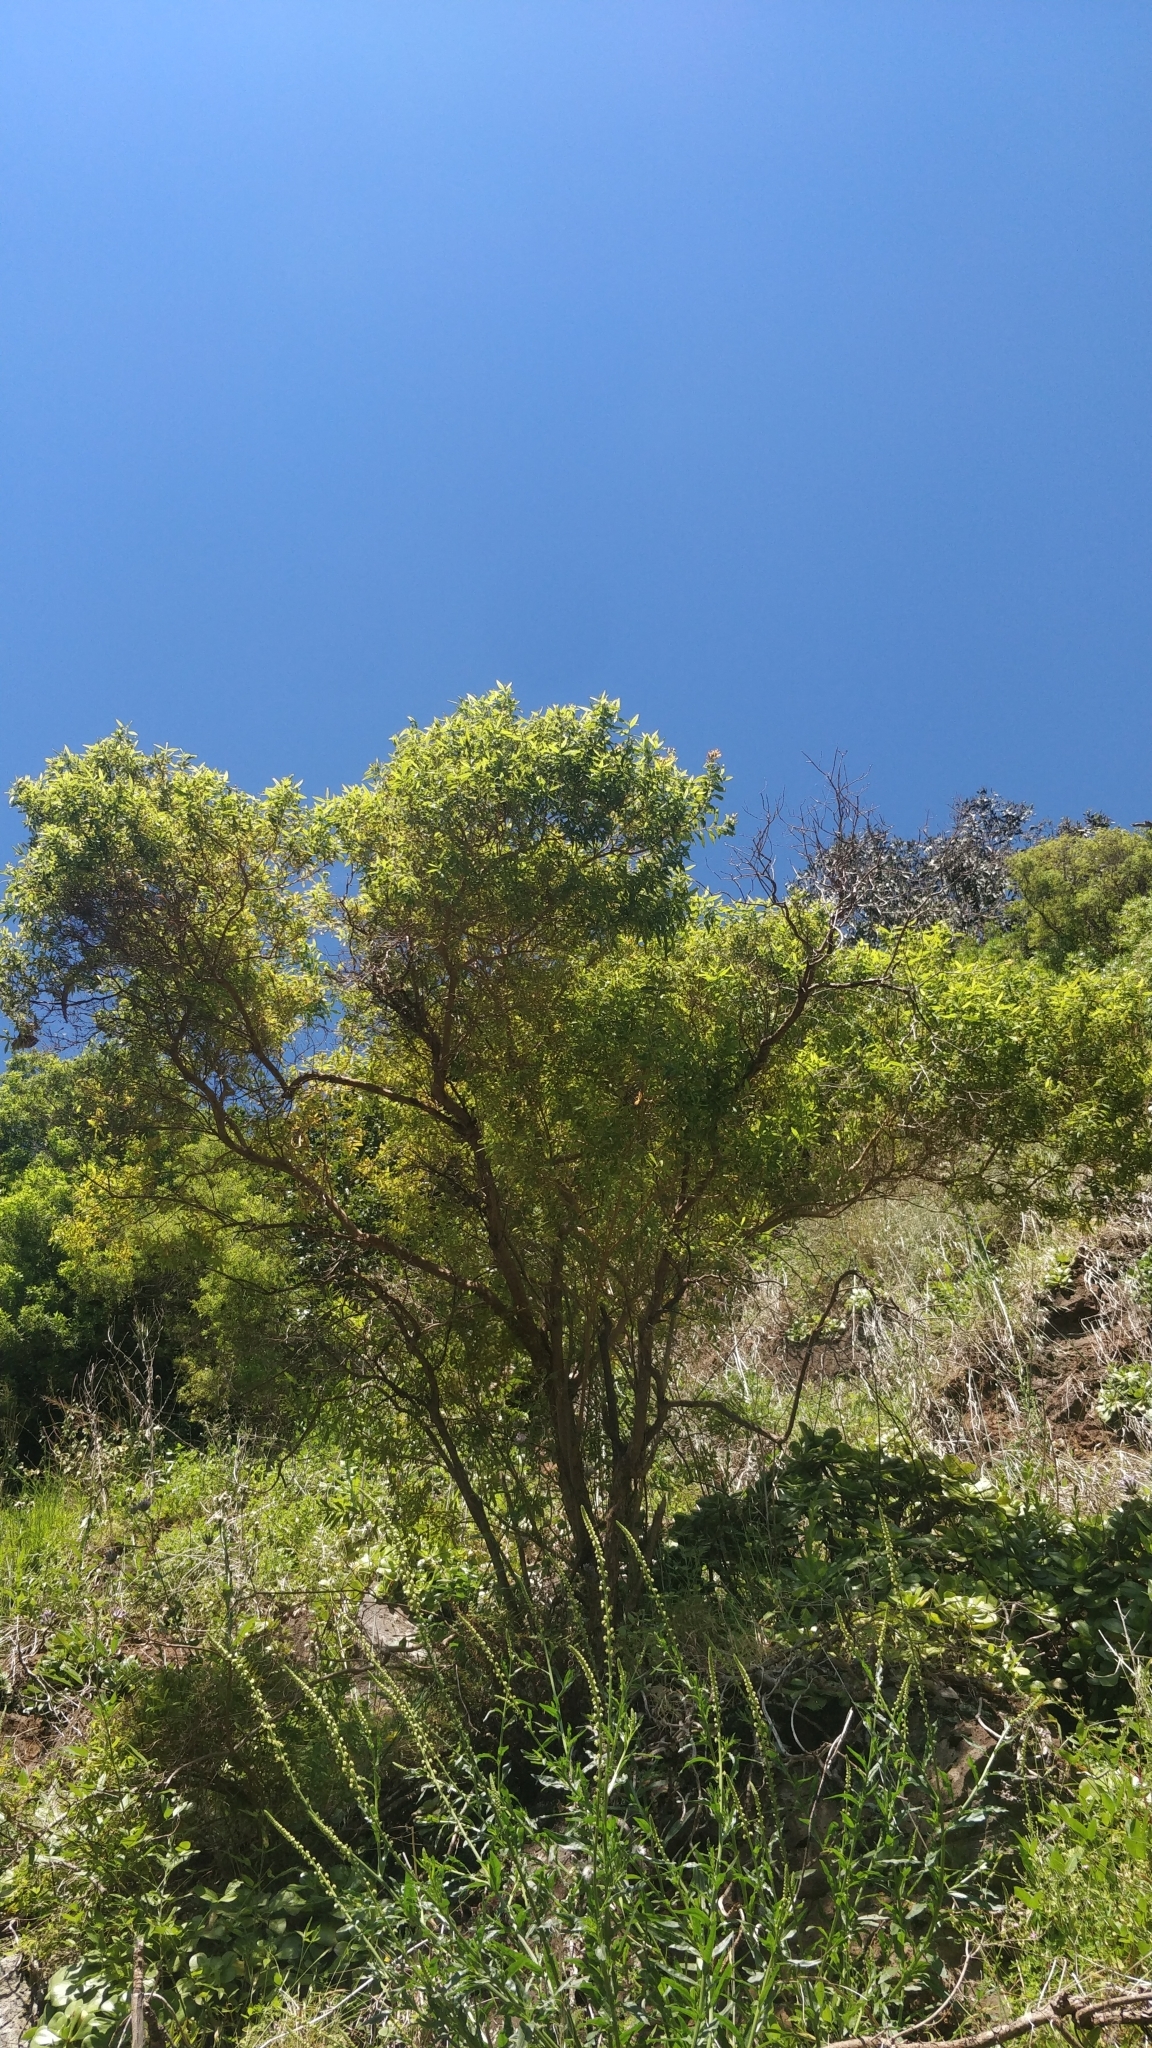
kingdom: Plantae
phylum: Tracheophyta
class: Magnoliopsida
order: Malpighiales
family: Hypericaceae
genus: Hypericum
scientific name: Hypericum canariense
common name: Canary island st. johnswort
